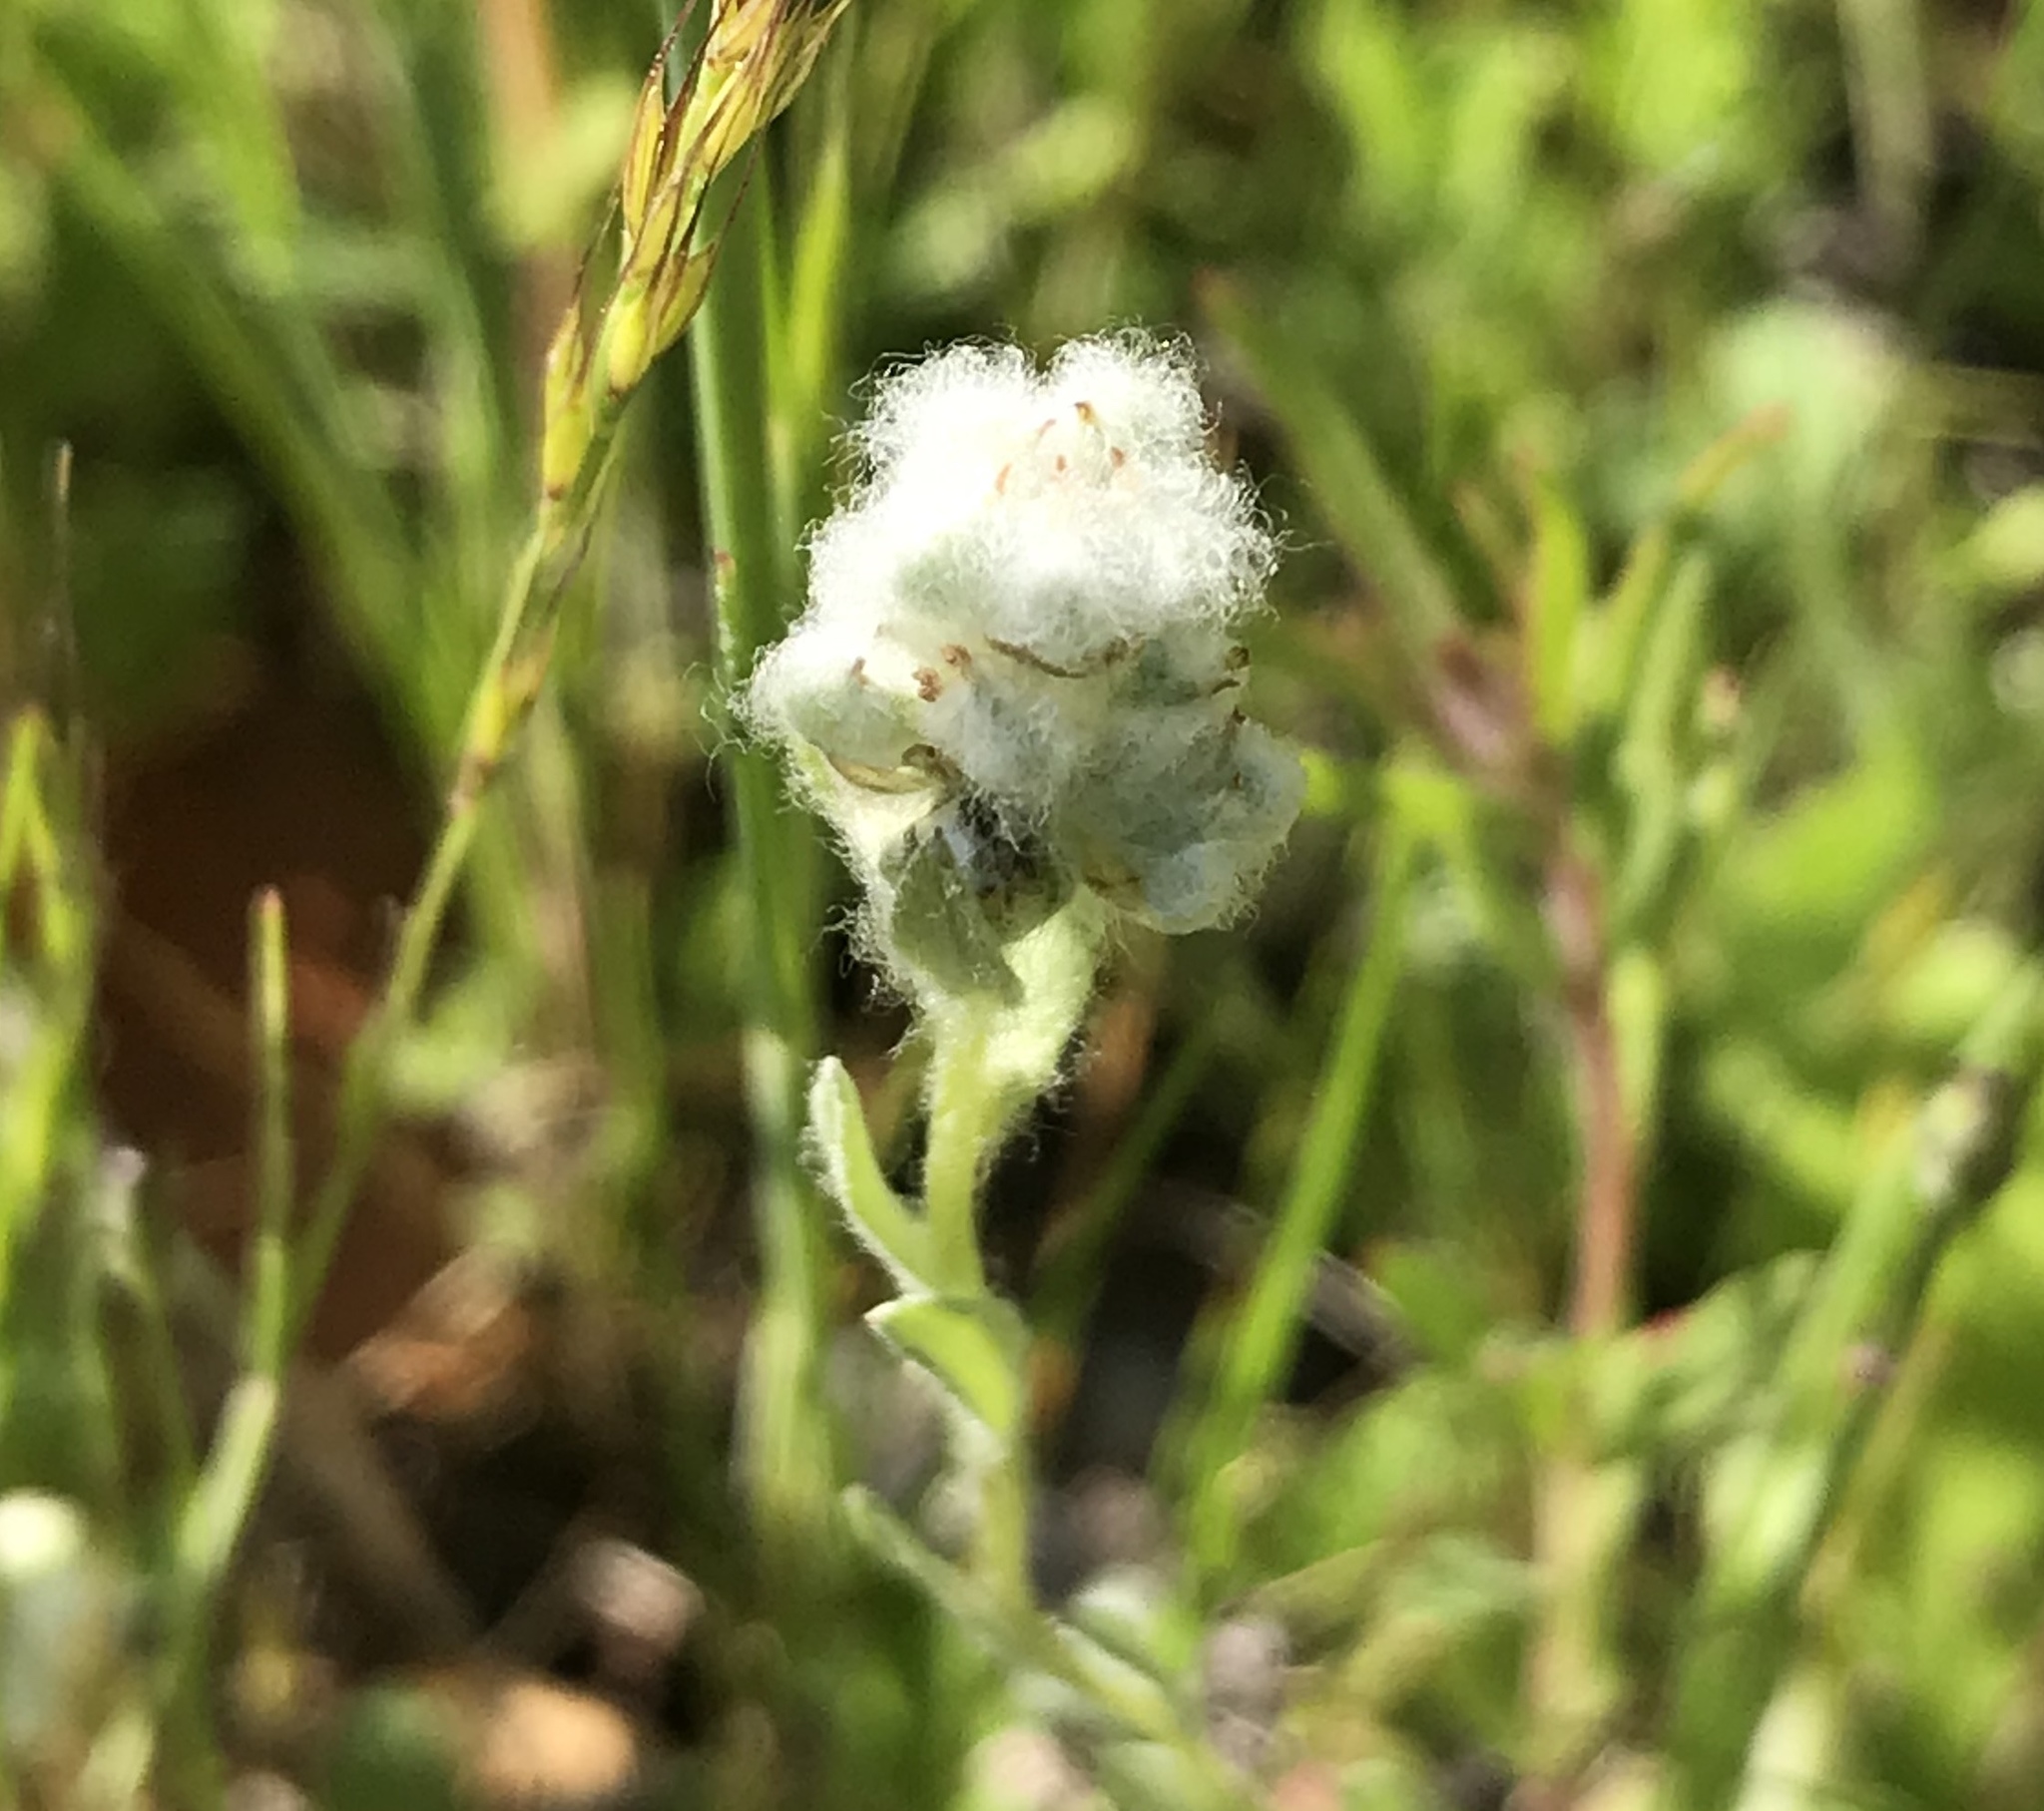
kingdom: Plantae
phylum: Tracheophyta
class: Magnoliopsida
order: Asterales
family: Asteraceae
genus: Bombycilaena
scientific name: Bombycilaena californica
